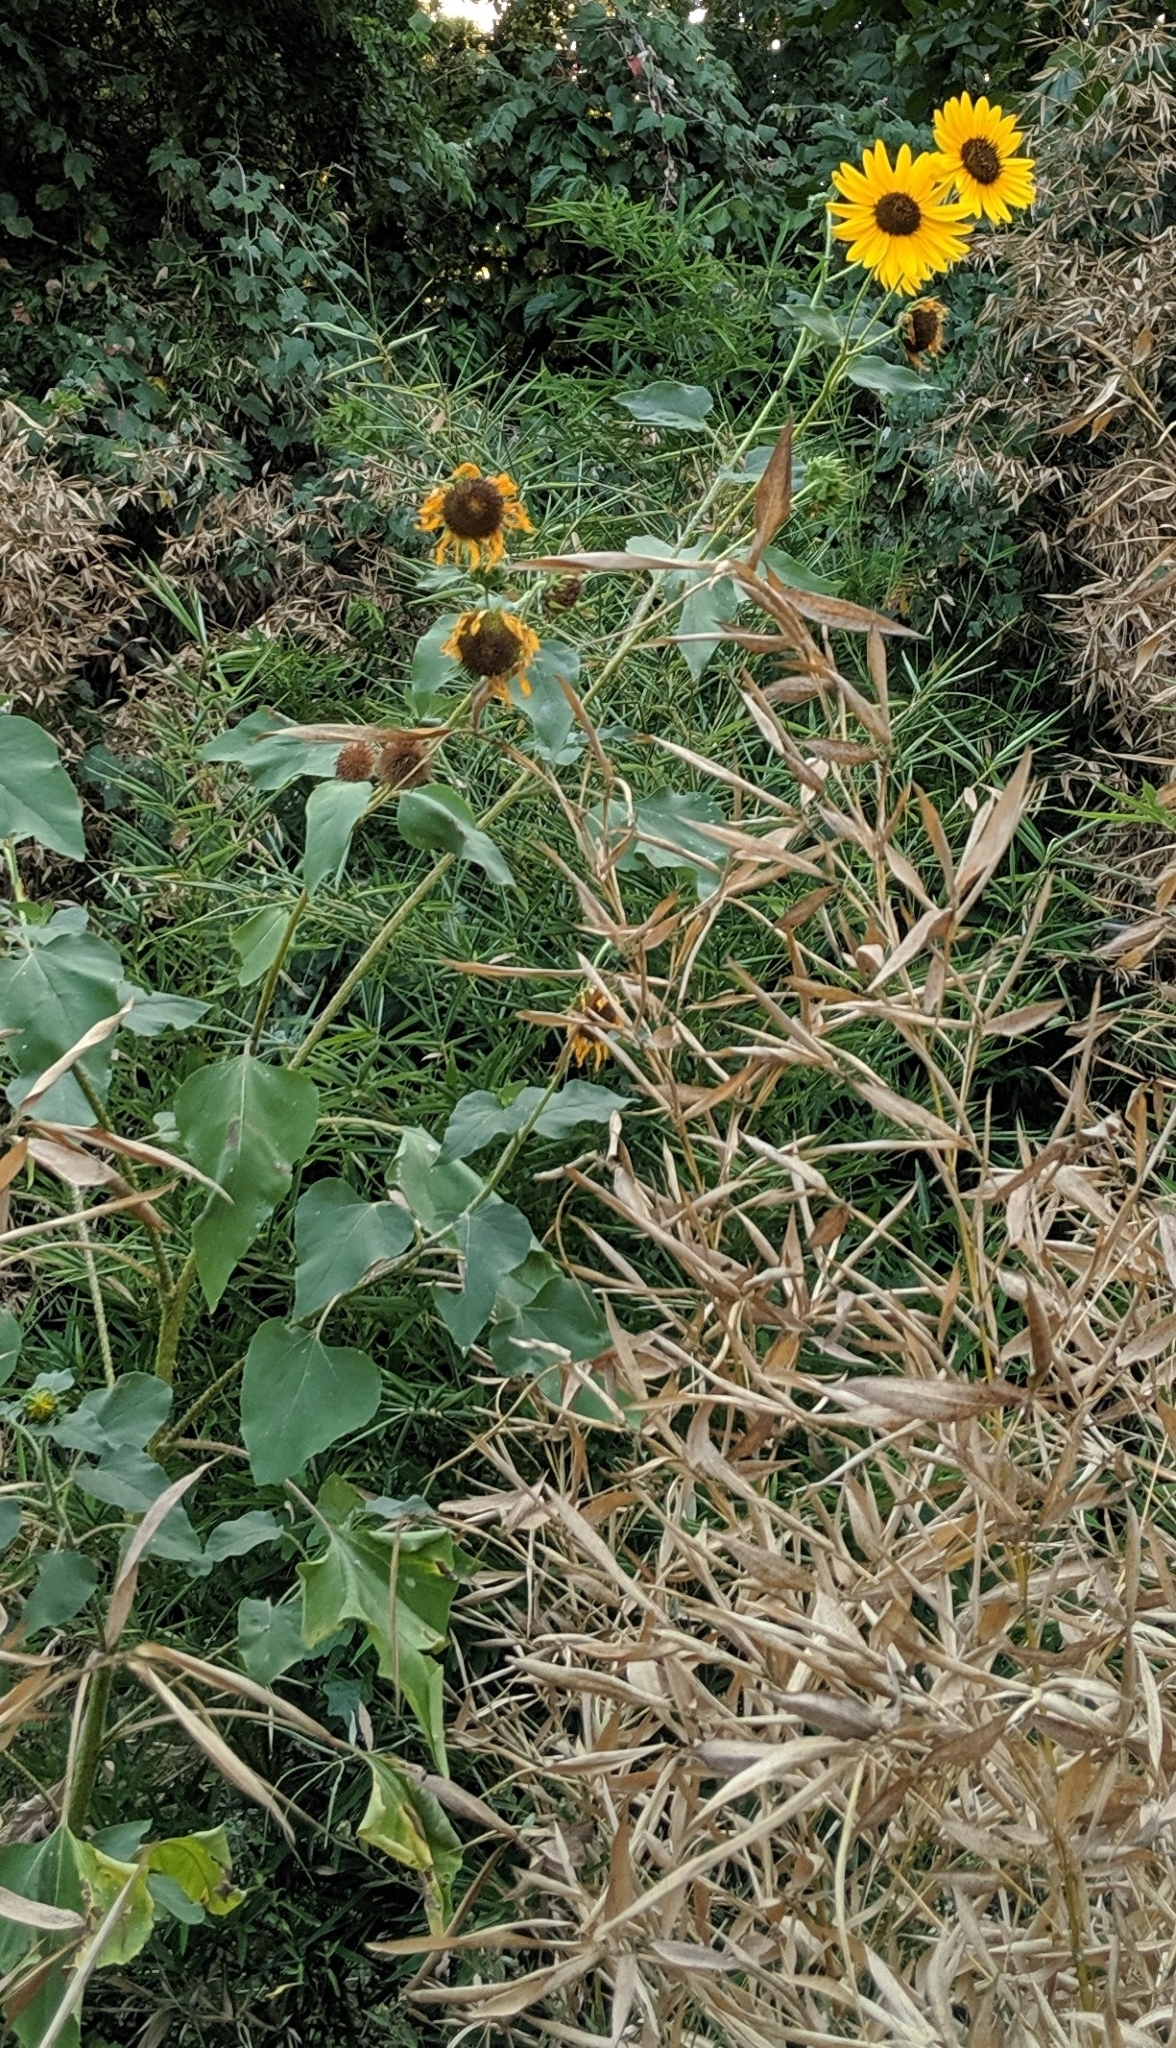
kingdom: Plantae
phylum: Tracheophyta
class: Magnoliopsida
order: Asterales
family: Asteraceae
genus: Helianthus
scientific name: Helianthus annuus
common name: Sunflower
